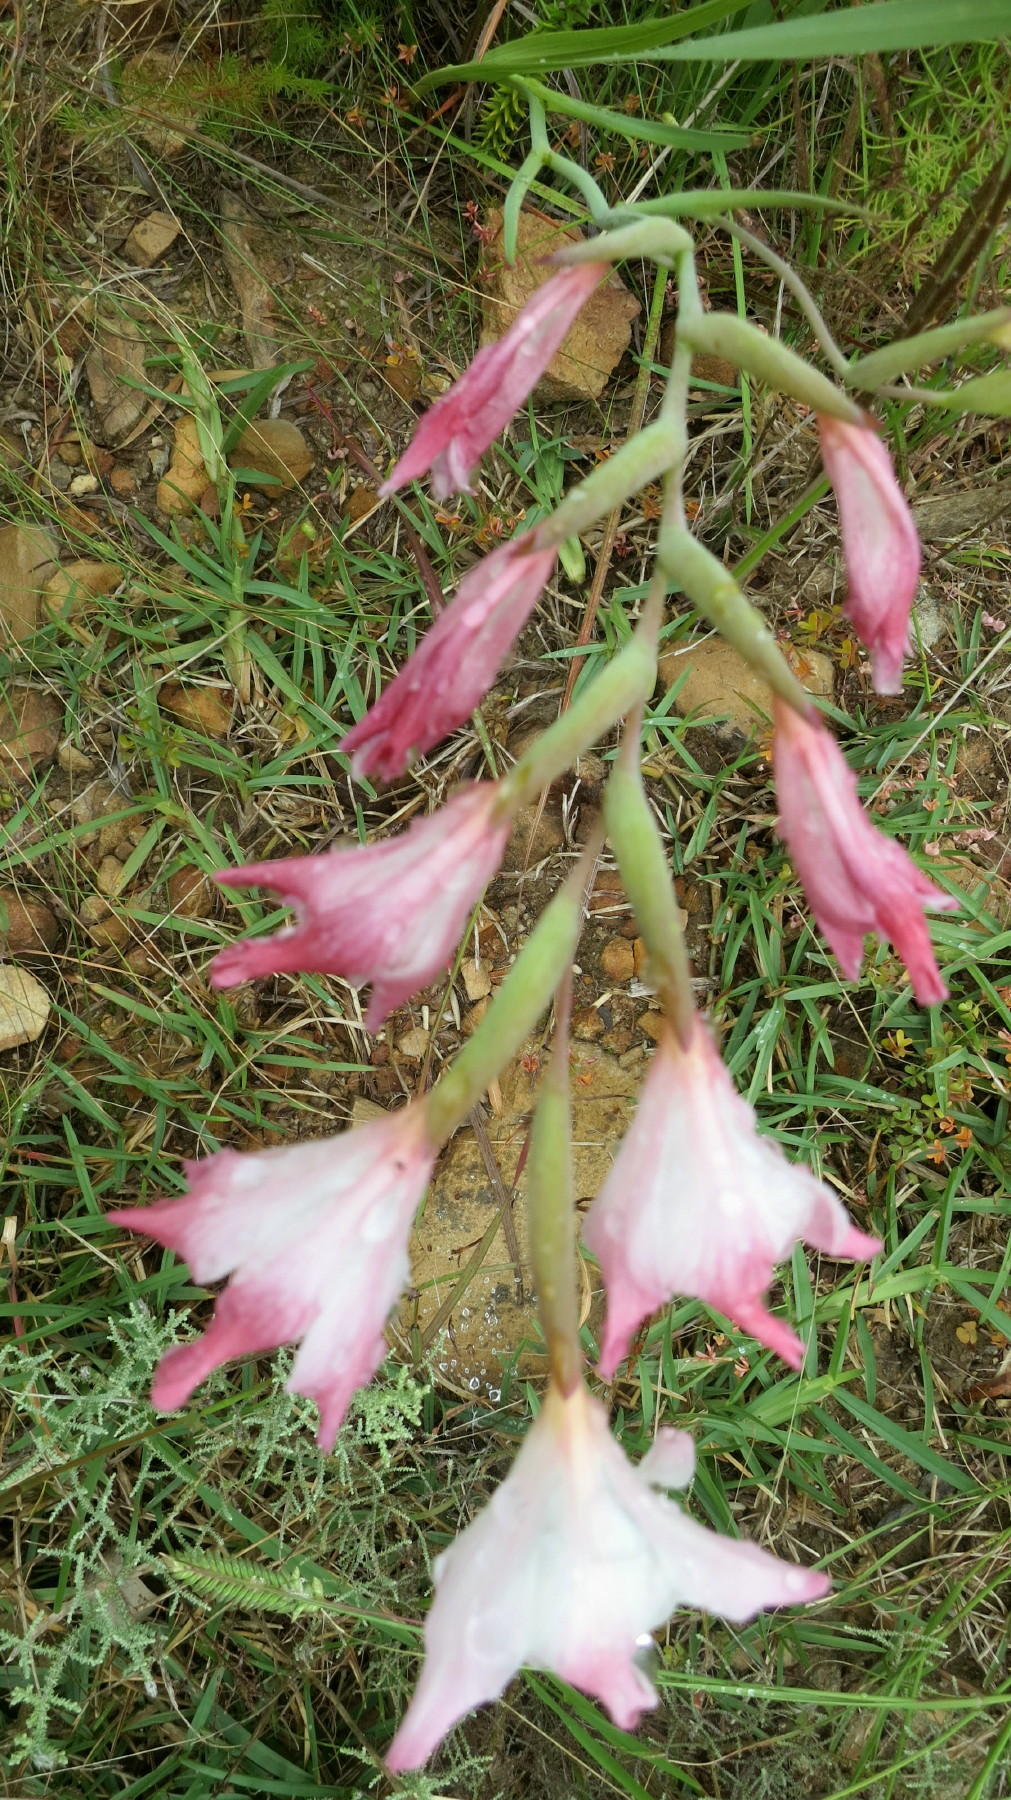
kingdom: Plantae
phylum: Tracheophyta
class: Liliopsida
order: Asparagales
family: Iridaceae
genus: Gladiolus
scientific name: Gladiolus carneus
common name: Painted-lady
